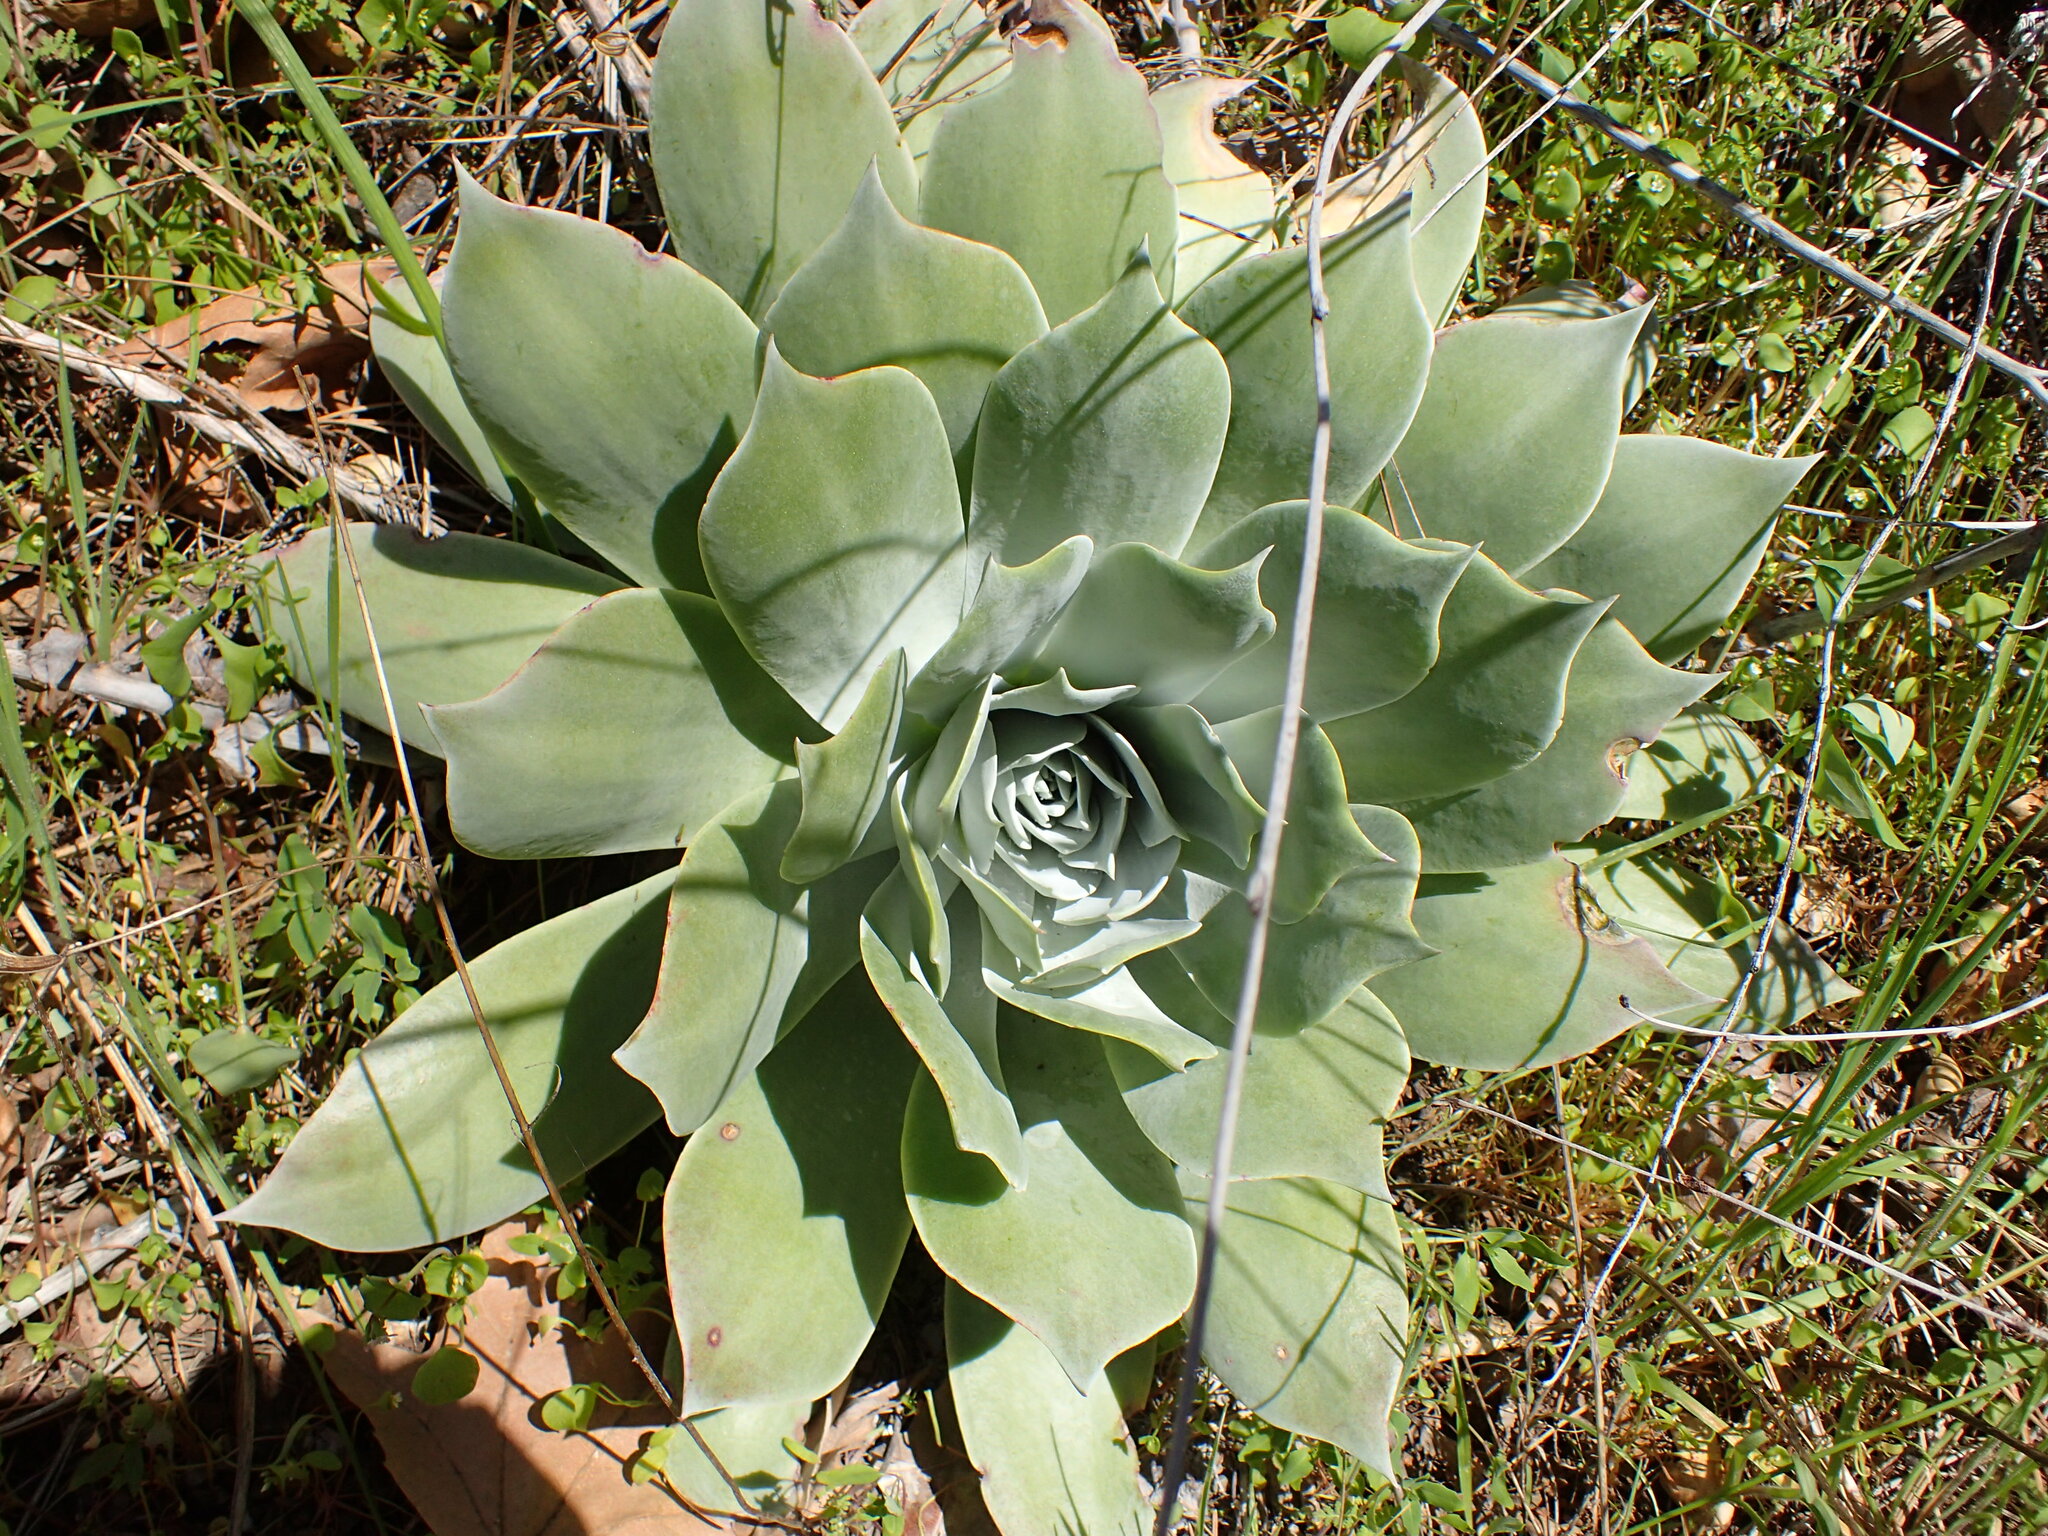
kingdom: Plantae
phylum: Tracheophyta
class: Magnoliopsida
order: Saxifragales
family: Crassulaceae
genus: Dudleya
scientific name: Dudleya pulverulenta
